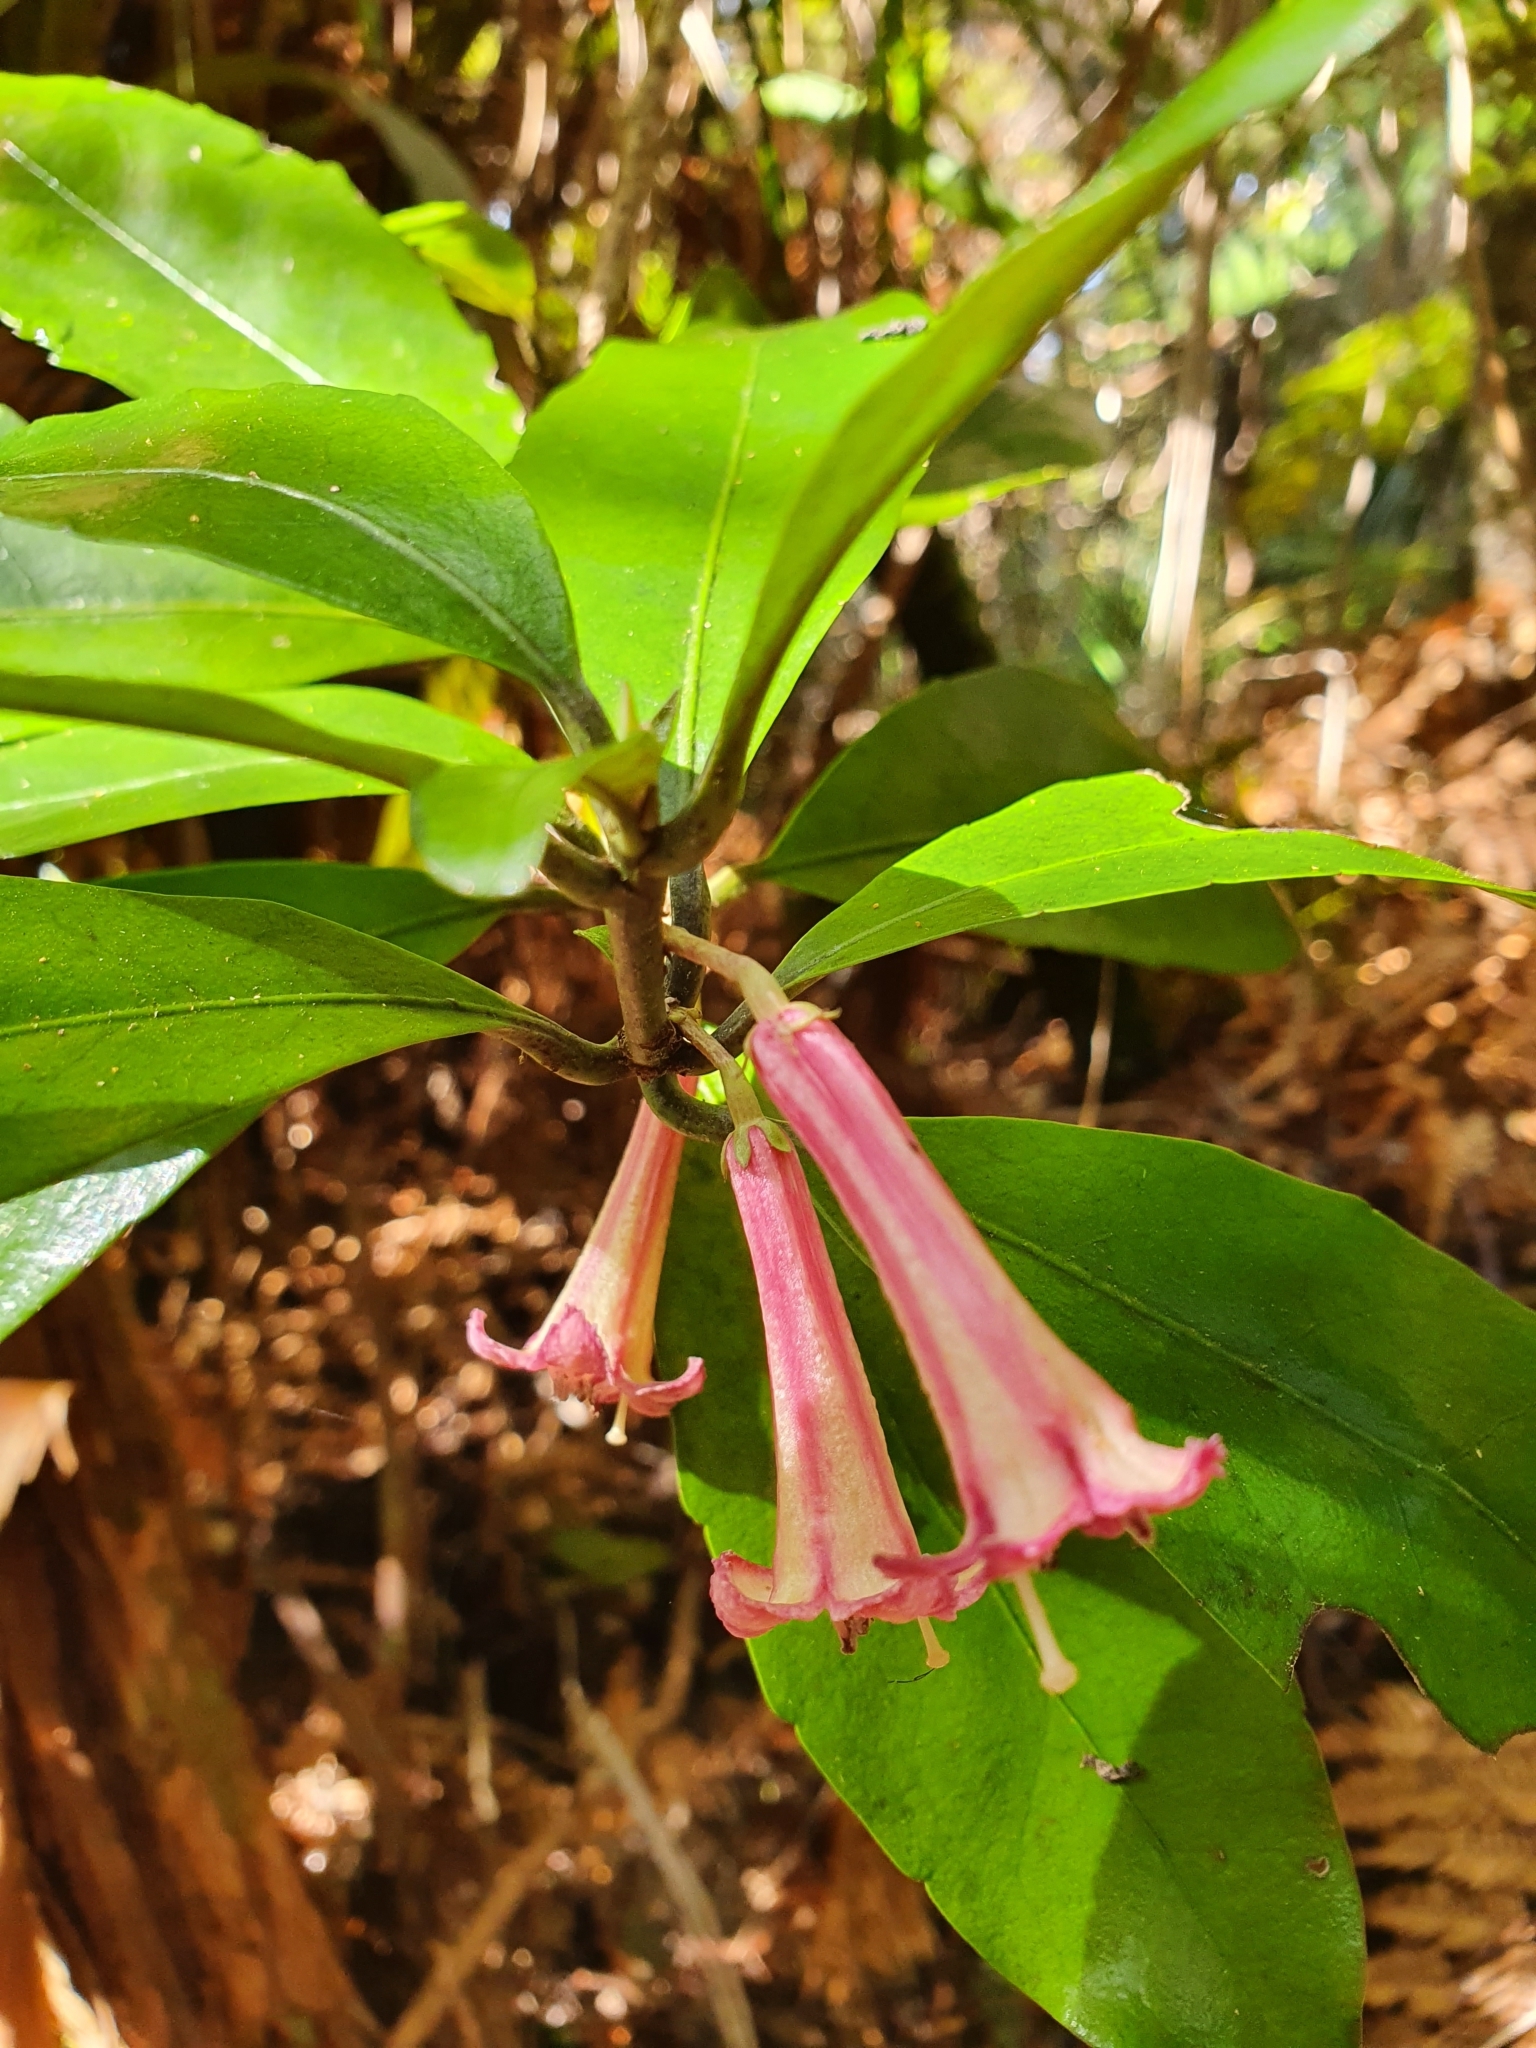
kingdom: Plantae
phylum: Tracheophyta
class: Magnoliopsida
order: Asterales
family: Alseuosmiaceae
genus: Alseuosmia
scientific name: Alseuosmia macrophylla
